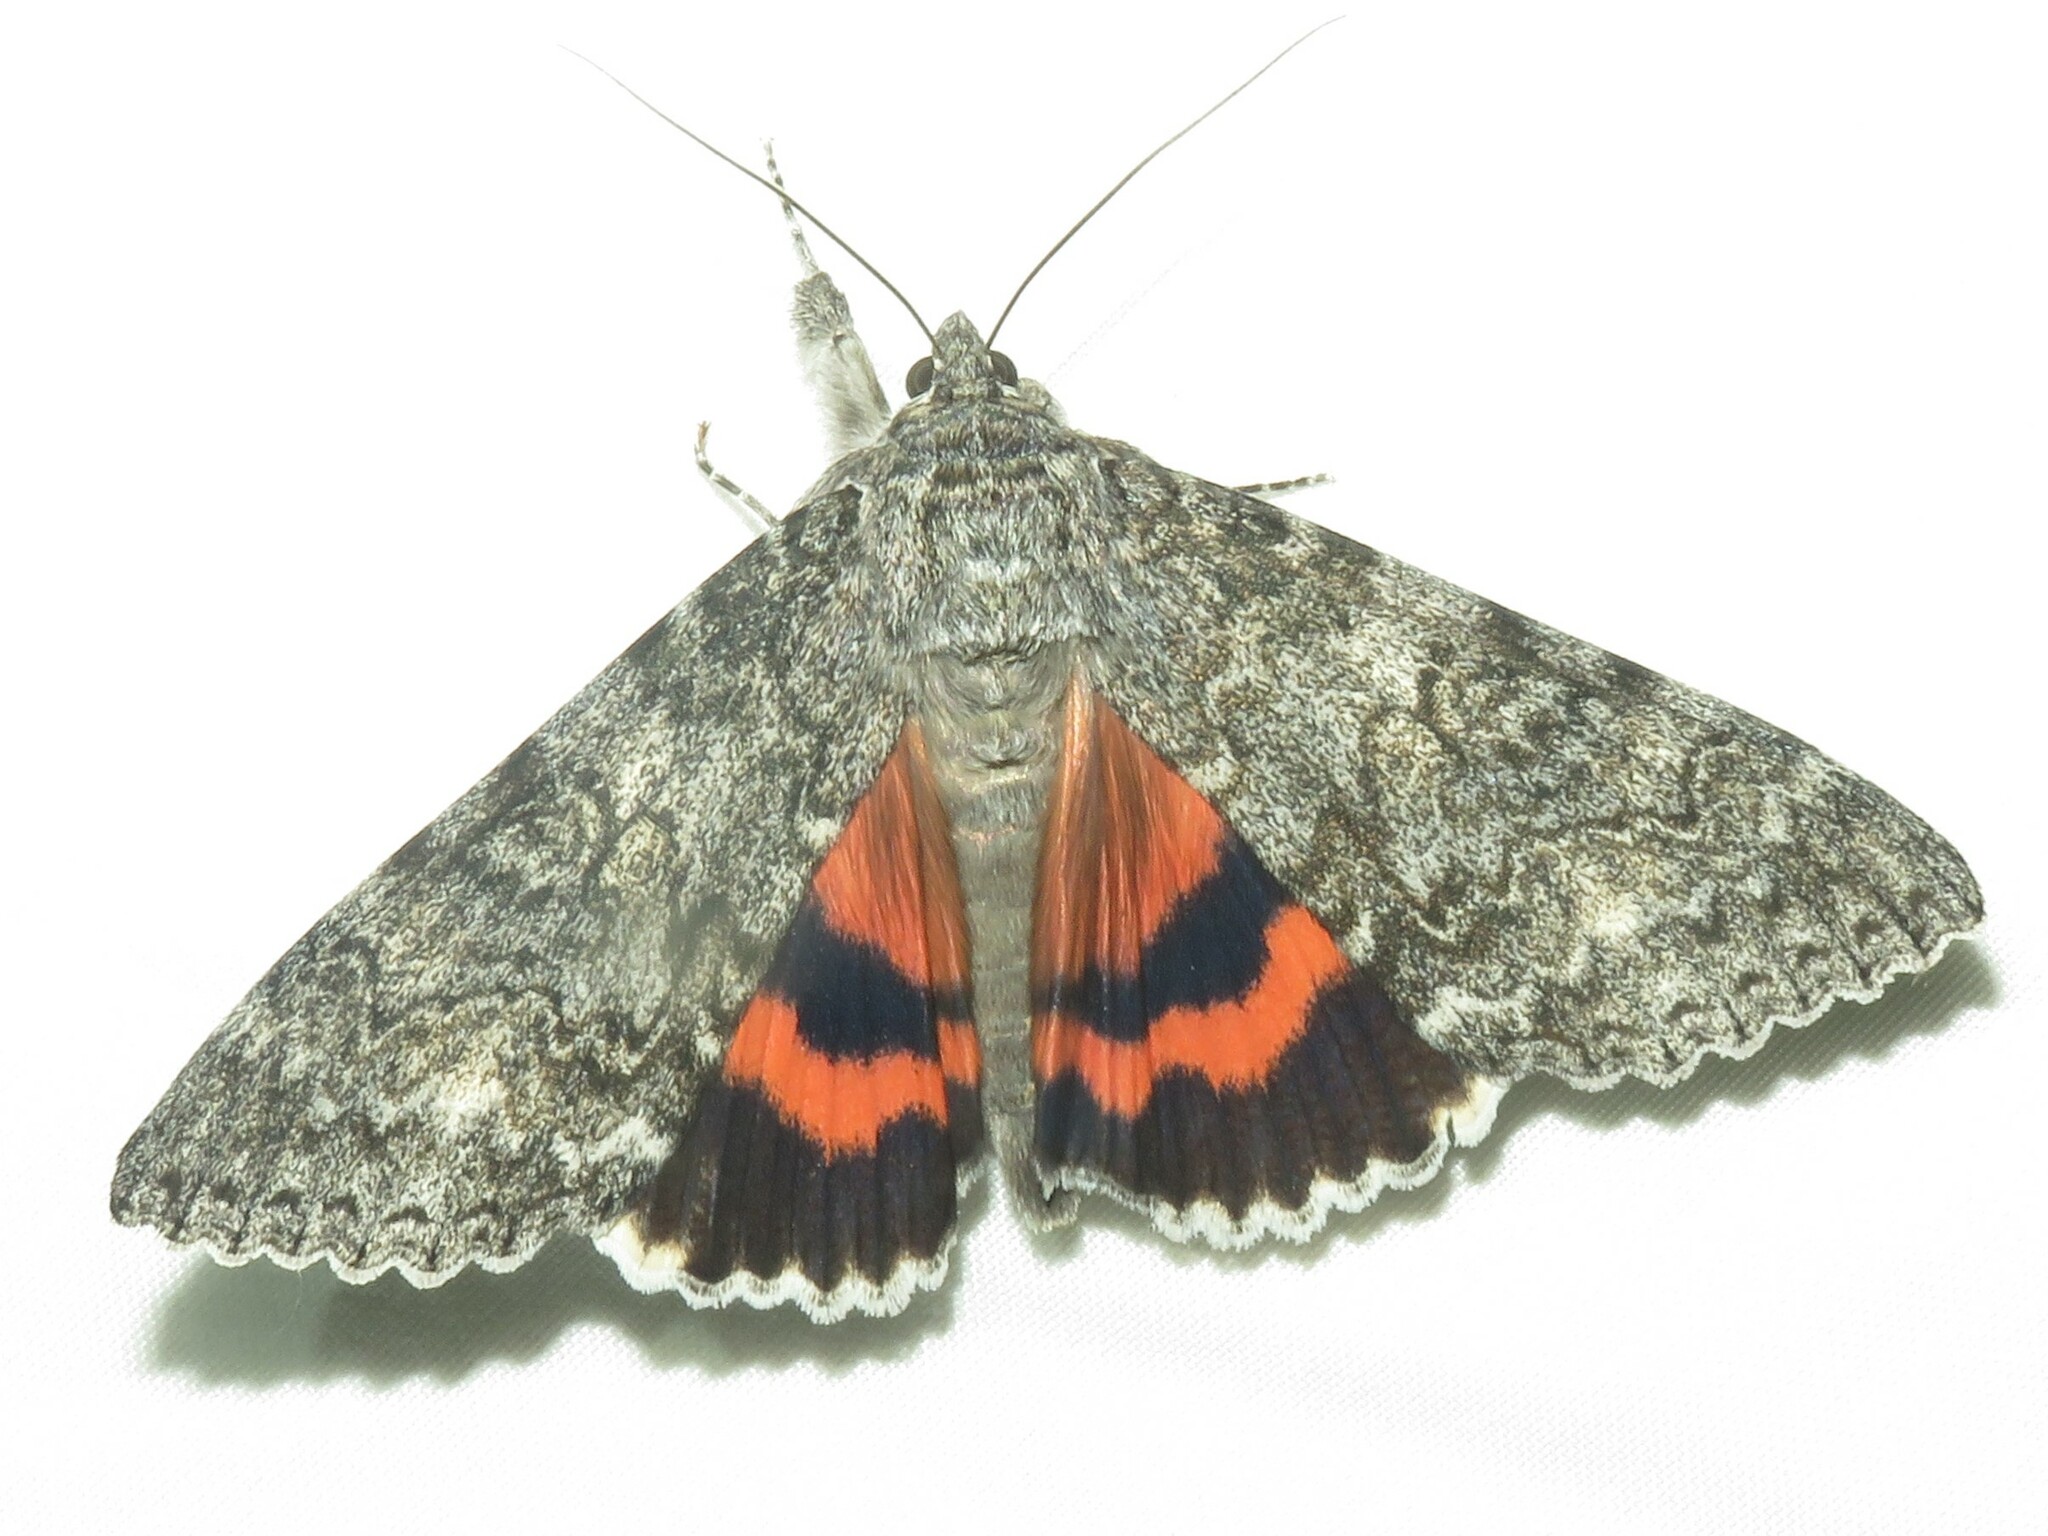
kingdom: Animalia
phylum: Arthropoda
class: Insecta
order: Lepidoptera
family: Erebidae
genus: Catocala
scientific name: Catocala unijuga
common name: Once-married underwing
